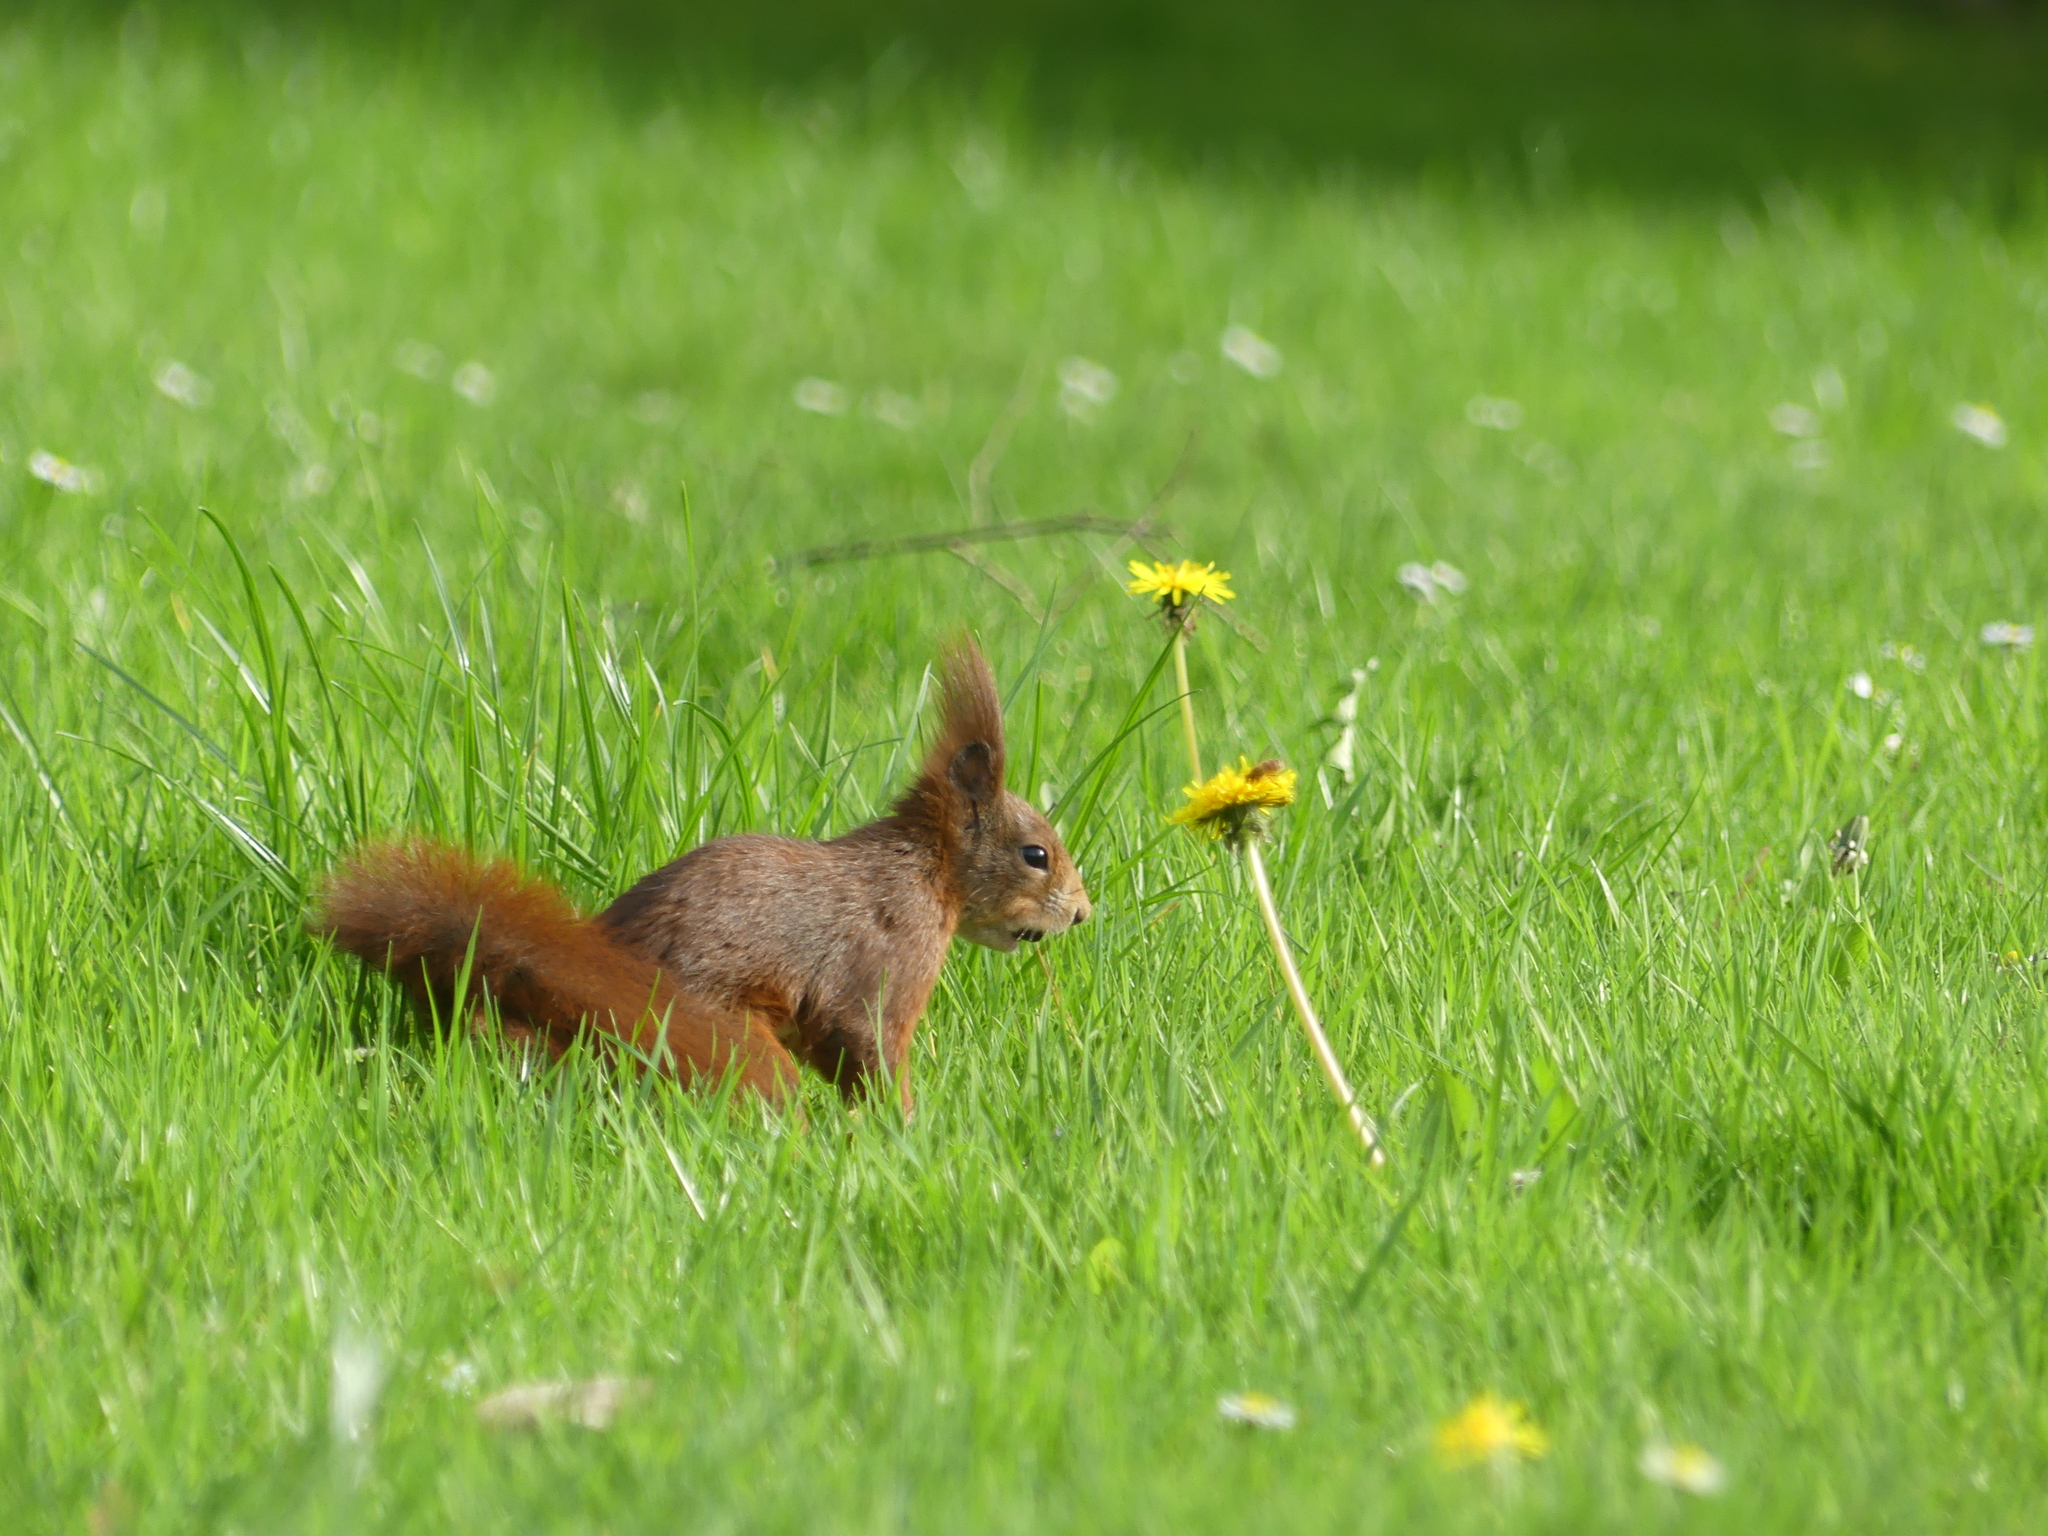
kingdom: Animalia
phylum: Chordata
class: Mammalia
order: Rodentia
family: Sciuridae
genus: Sciurus
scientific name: Sciurus vulgaris
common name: Eurasian red squirrel
